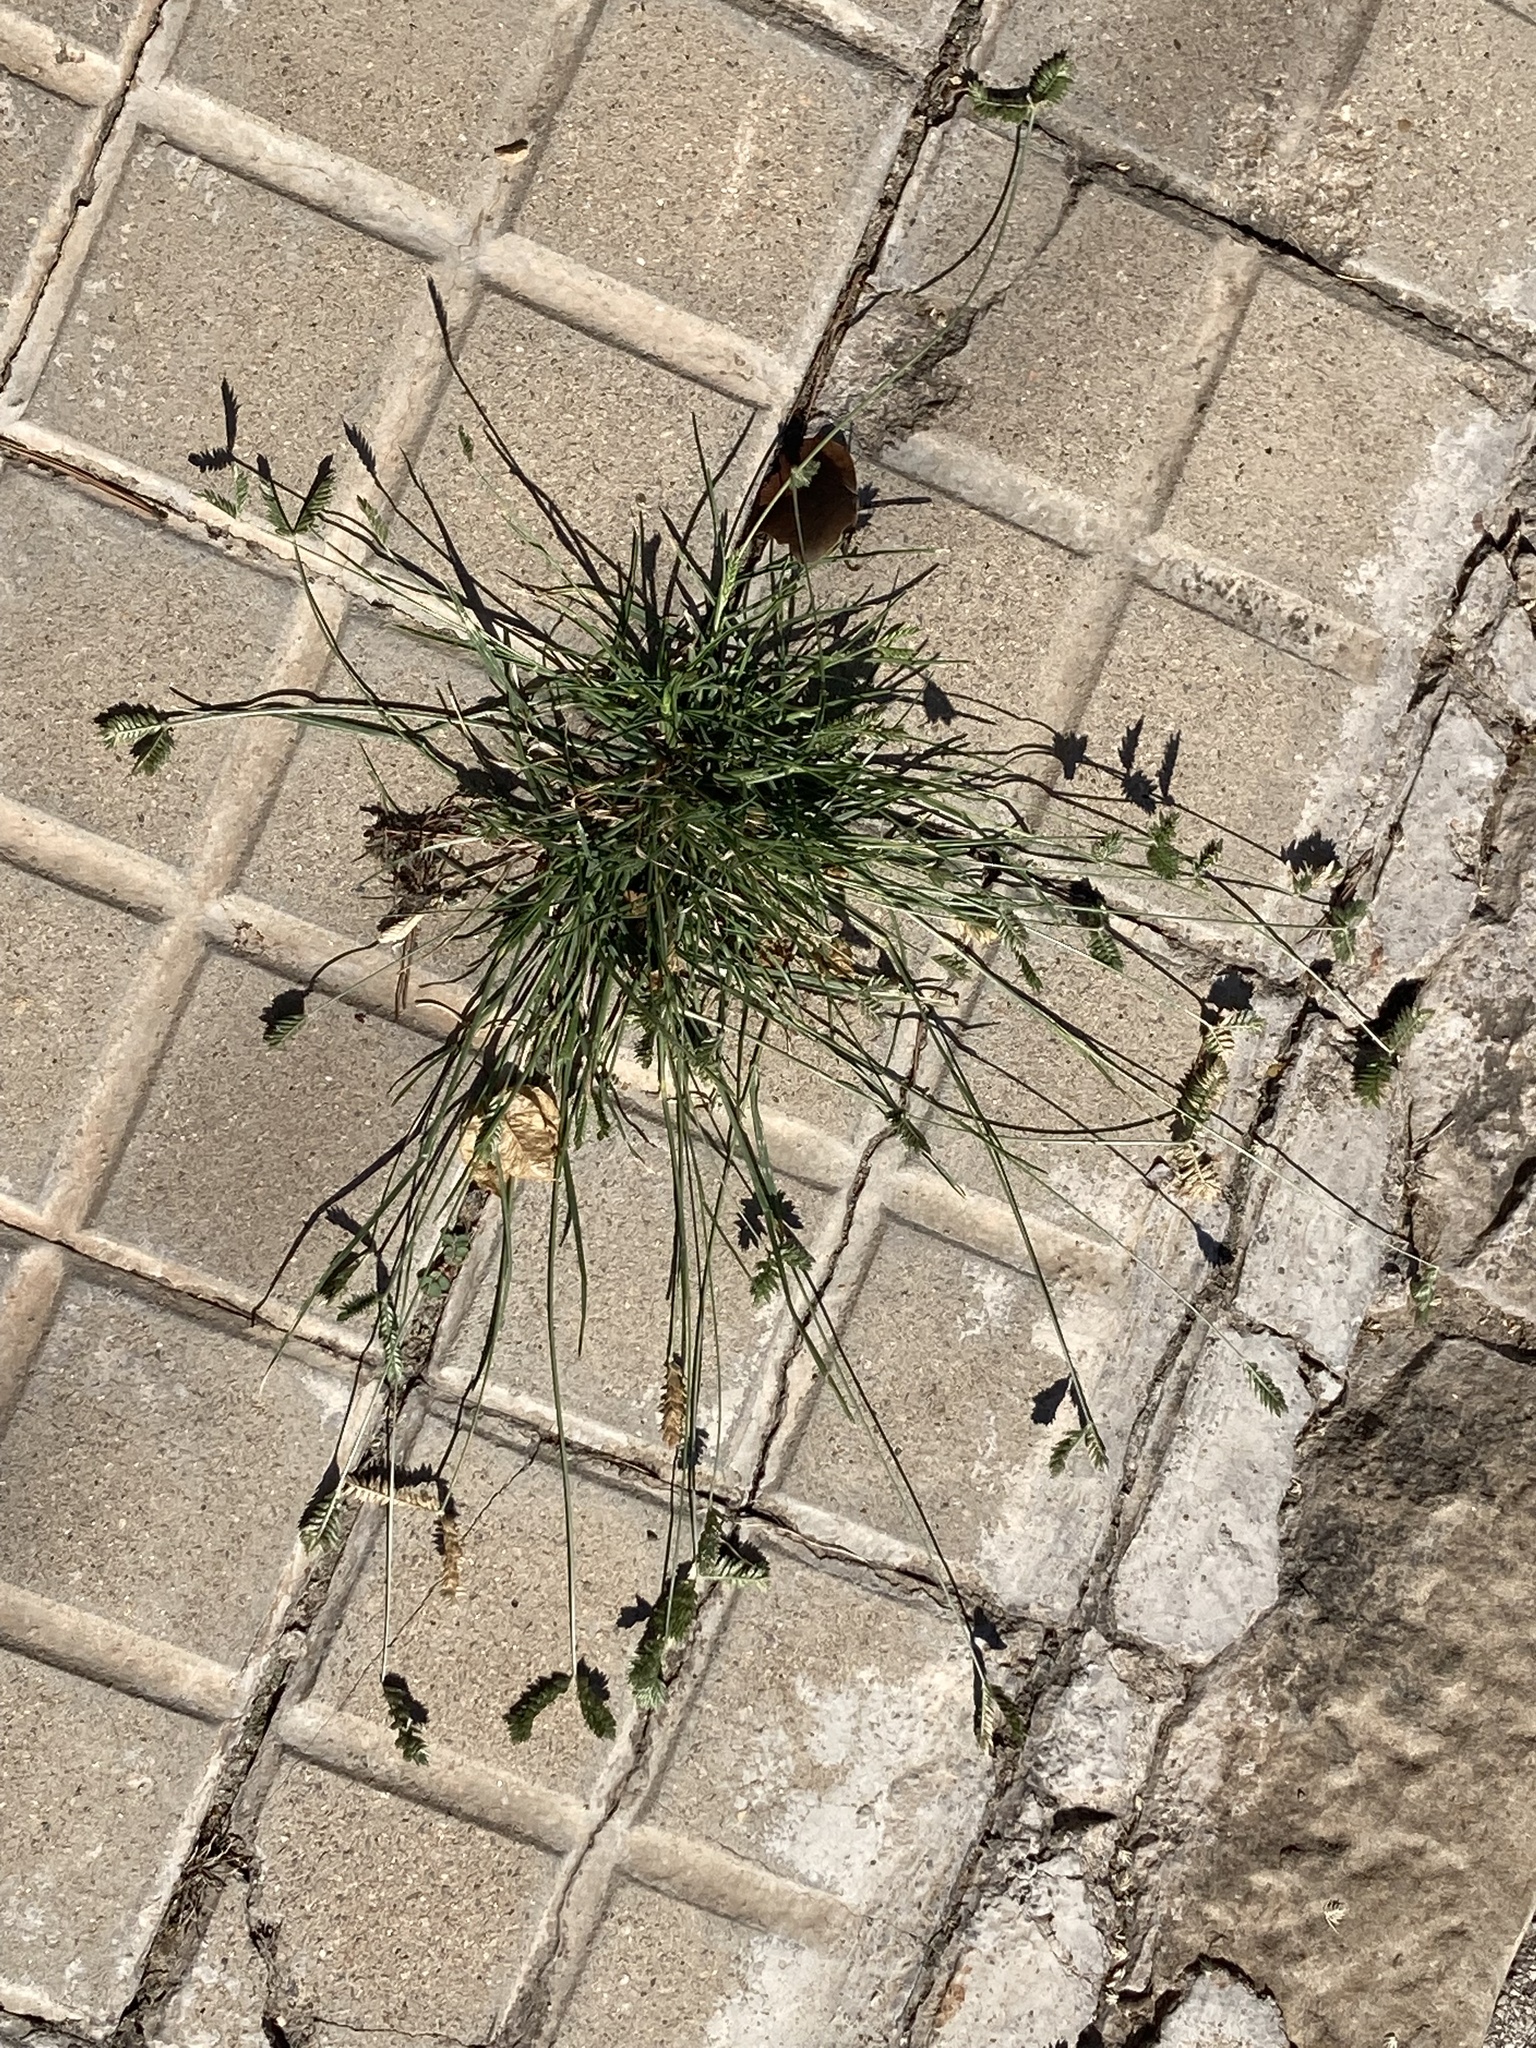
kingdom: Plantae
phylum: Tracheophyta
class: Liliopsida
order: Poales
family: Poaceae
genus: Eleusine
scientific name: Eleusine tristachya
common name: American yard-grass
